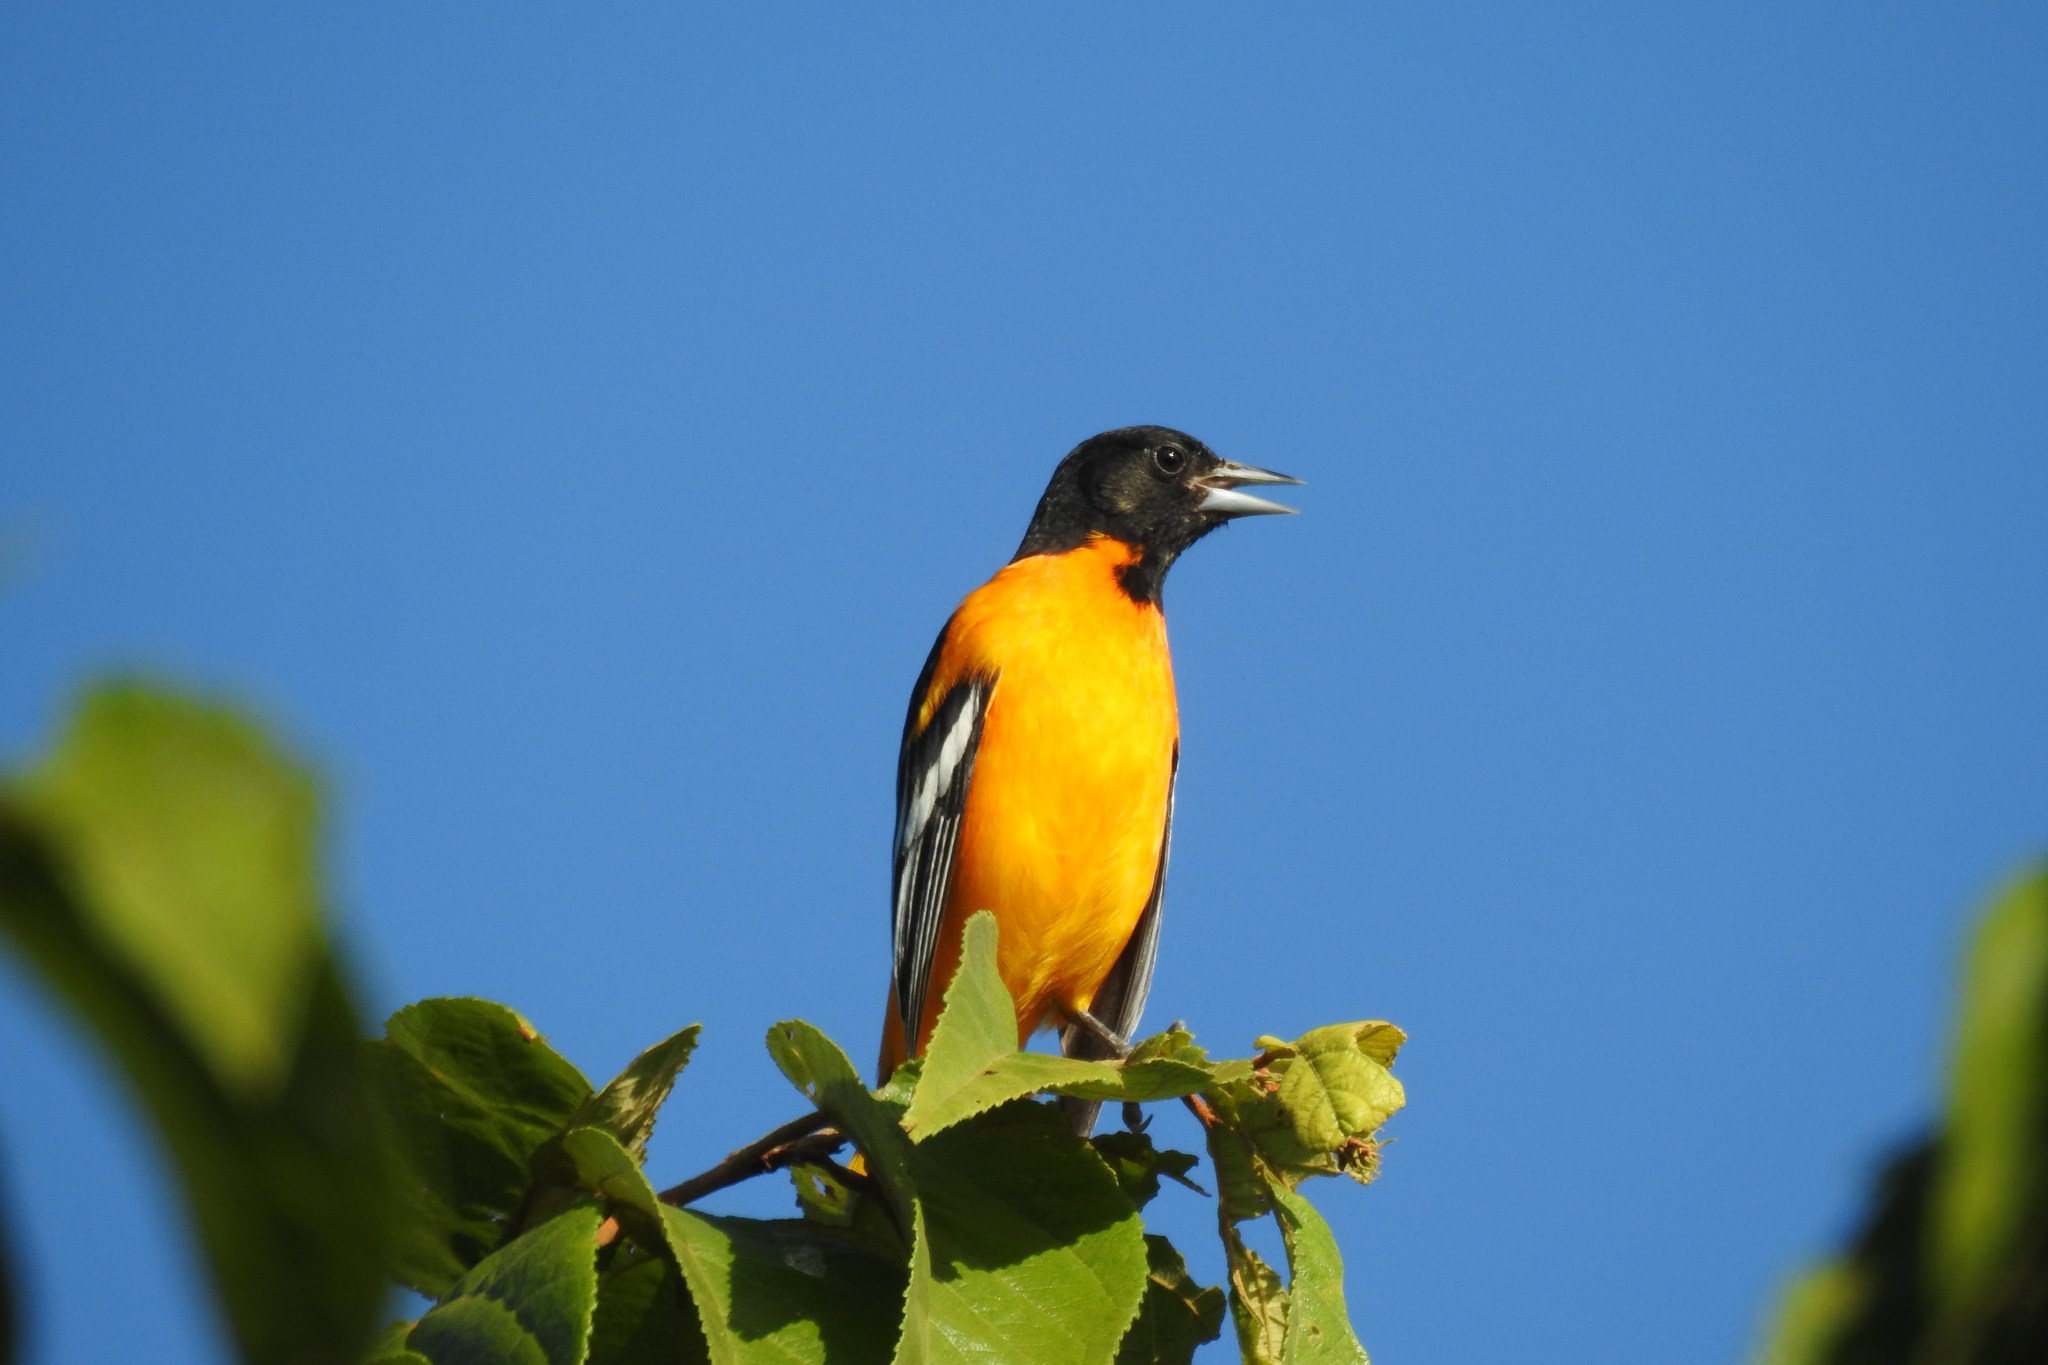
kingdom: Animalia
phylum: Chordata
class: Aves
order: Passeriformes
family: Icteridae
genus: Icterus
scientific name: Icterus galbula
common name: Baltimore oriole
